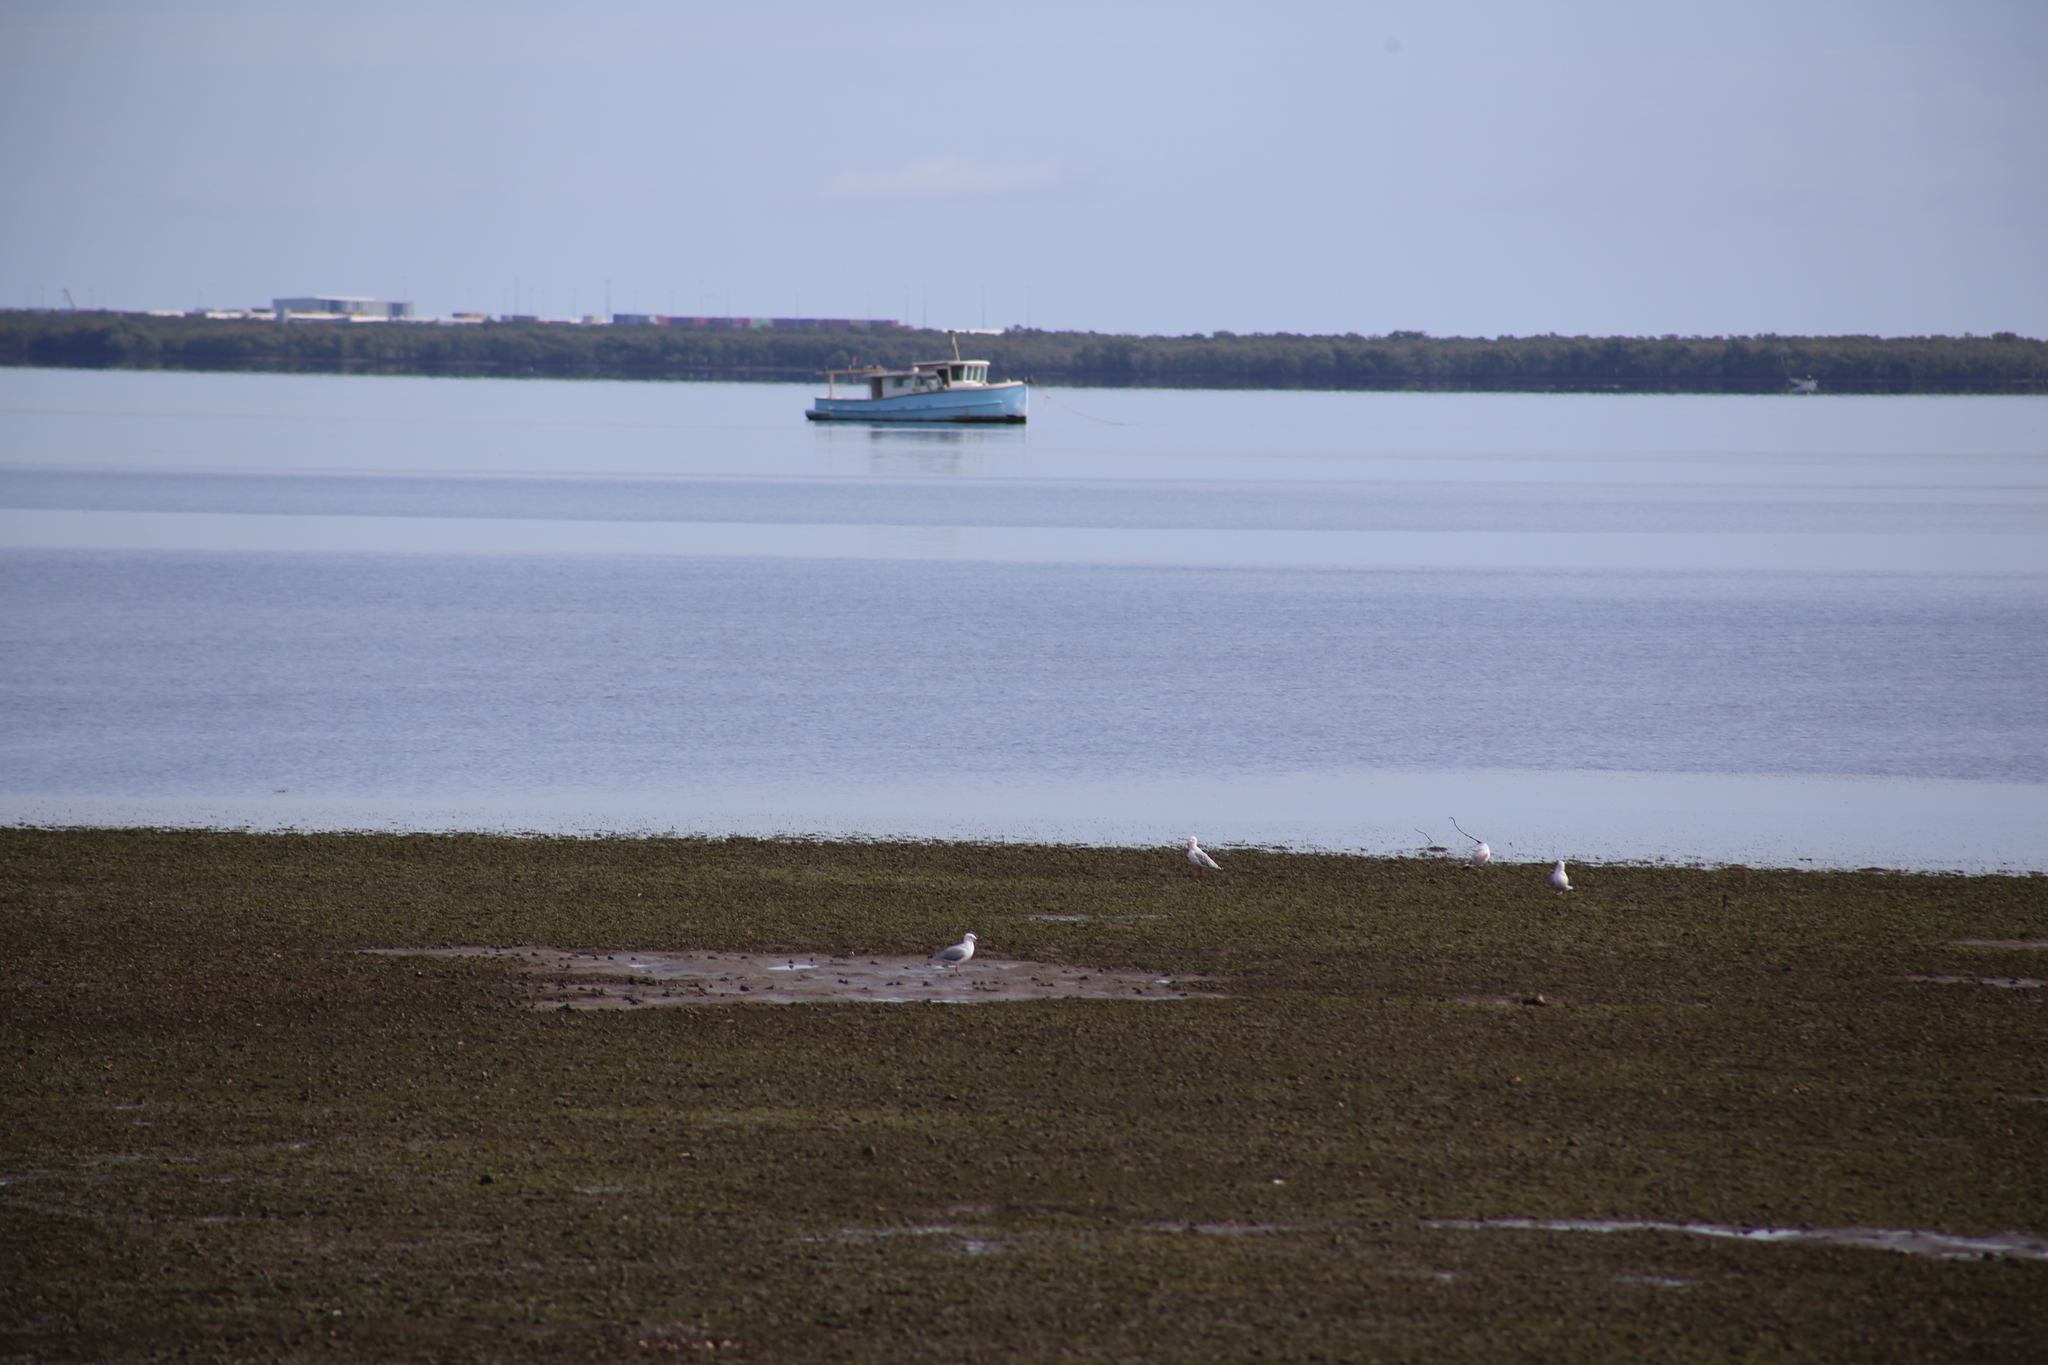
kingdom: Animalia
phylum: Chordata
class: Aves
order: Charadriiformes
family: Laridae
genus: Chroicocephalus
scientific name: Chroicocephalus novaehollandiae
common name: Silver gull
